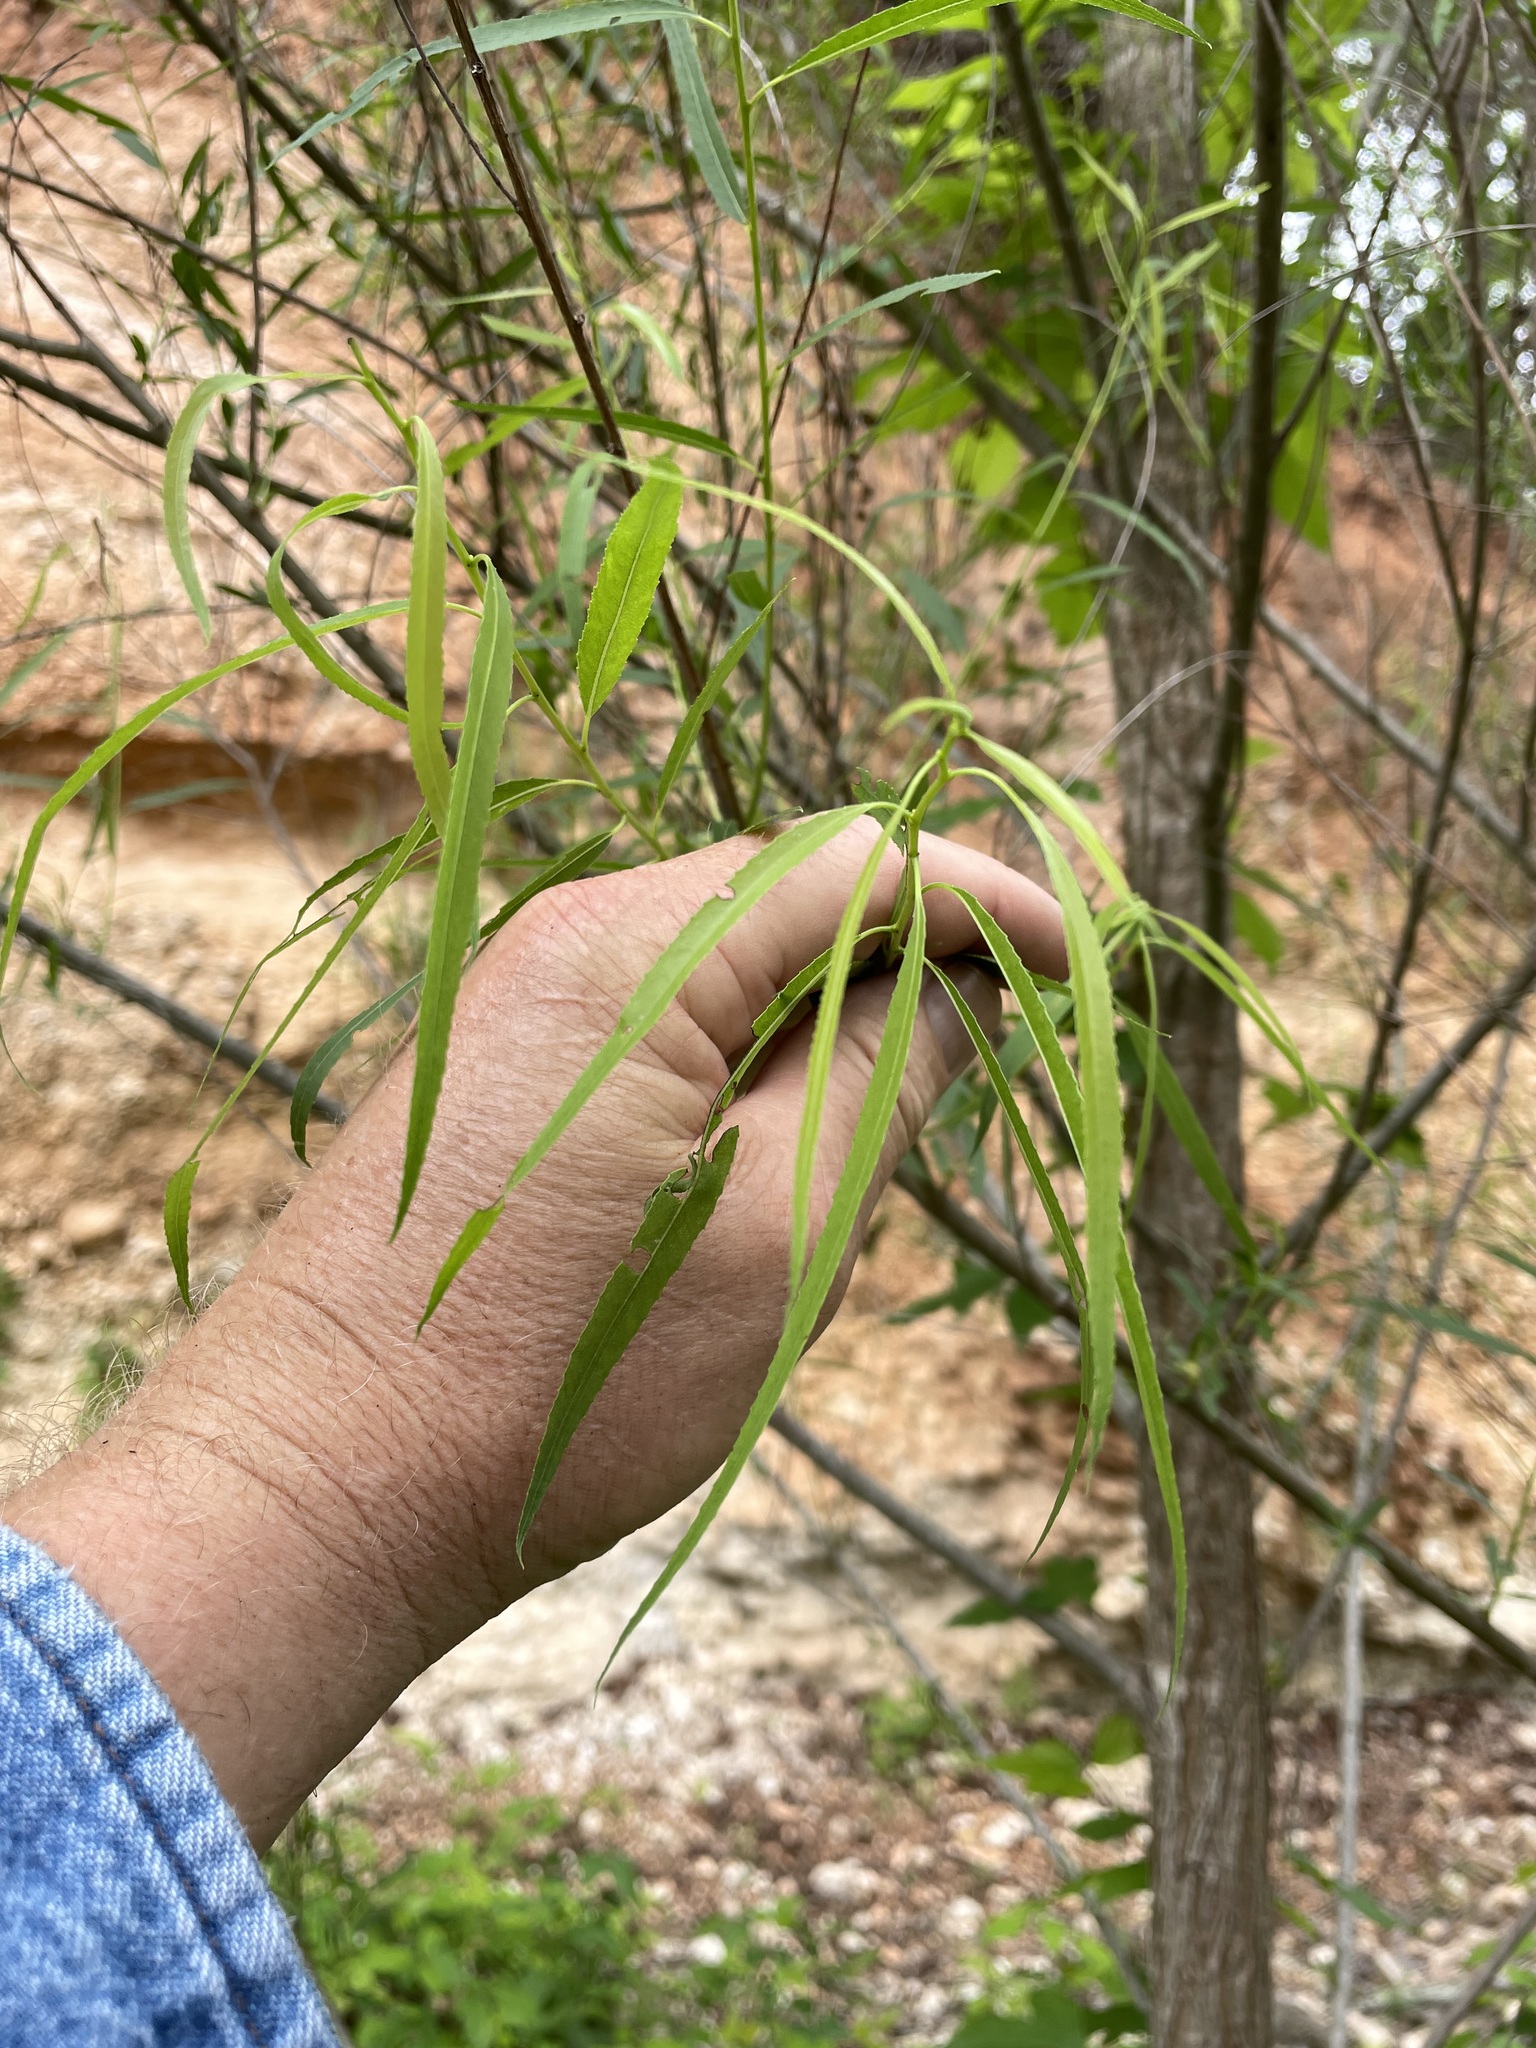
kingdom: Plantae
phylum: Tracheophyta
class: Magnoliopsida
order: Malpighiales
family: Salicaceae
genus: Salix
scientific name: Salix nigra
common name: Black willow
